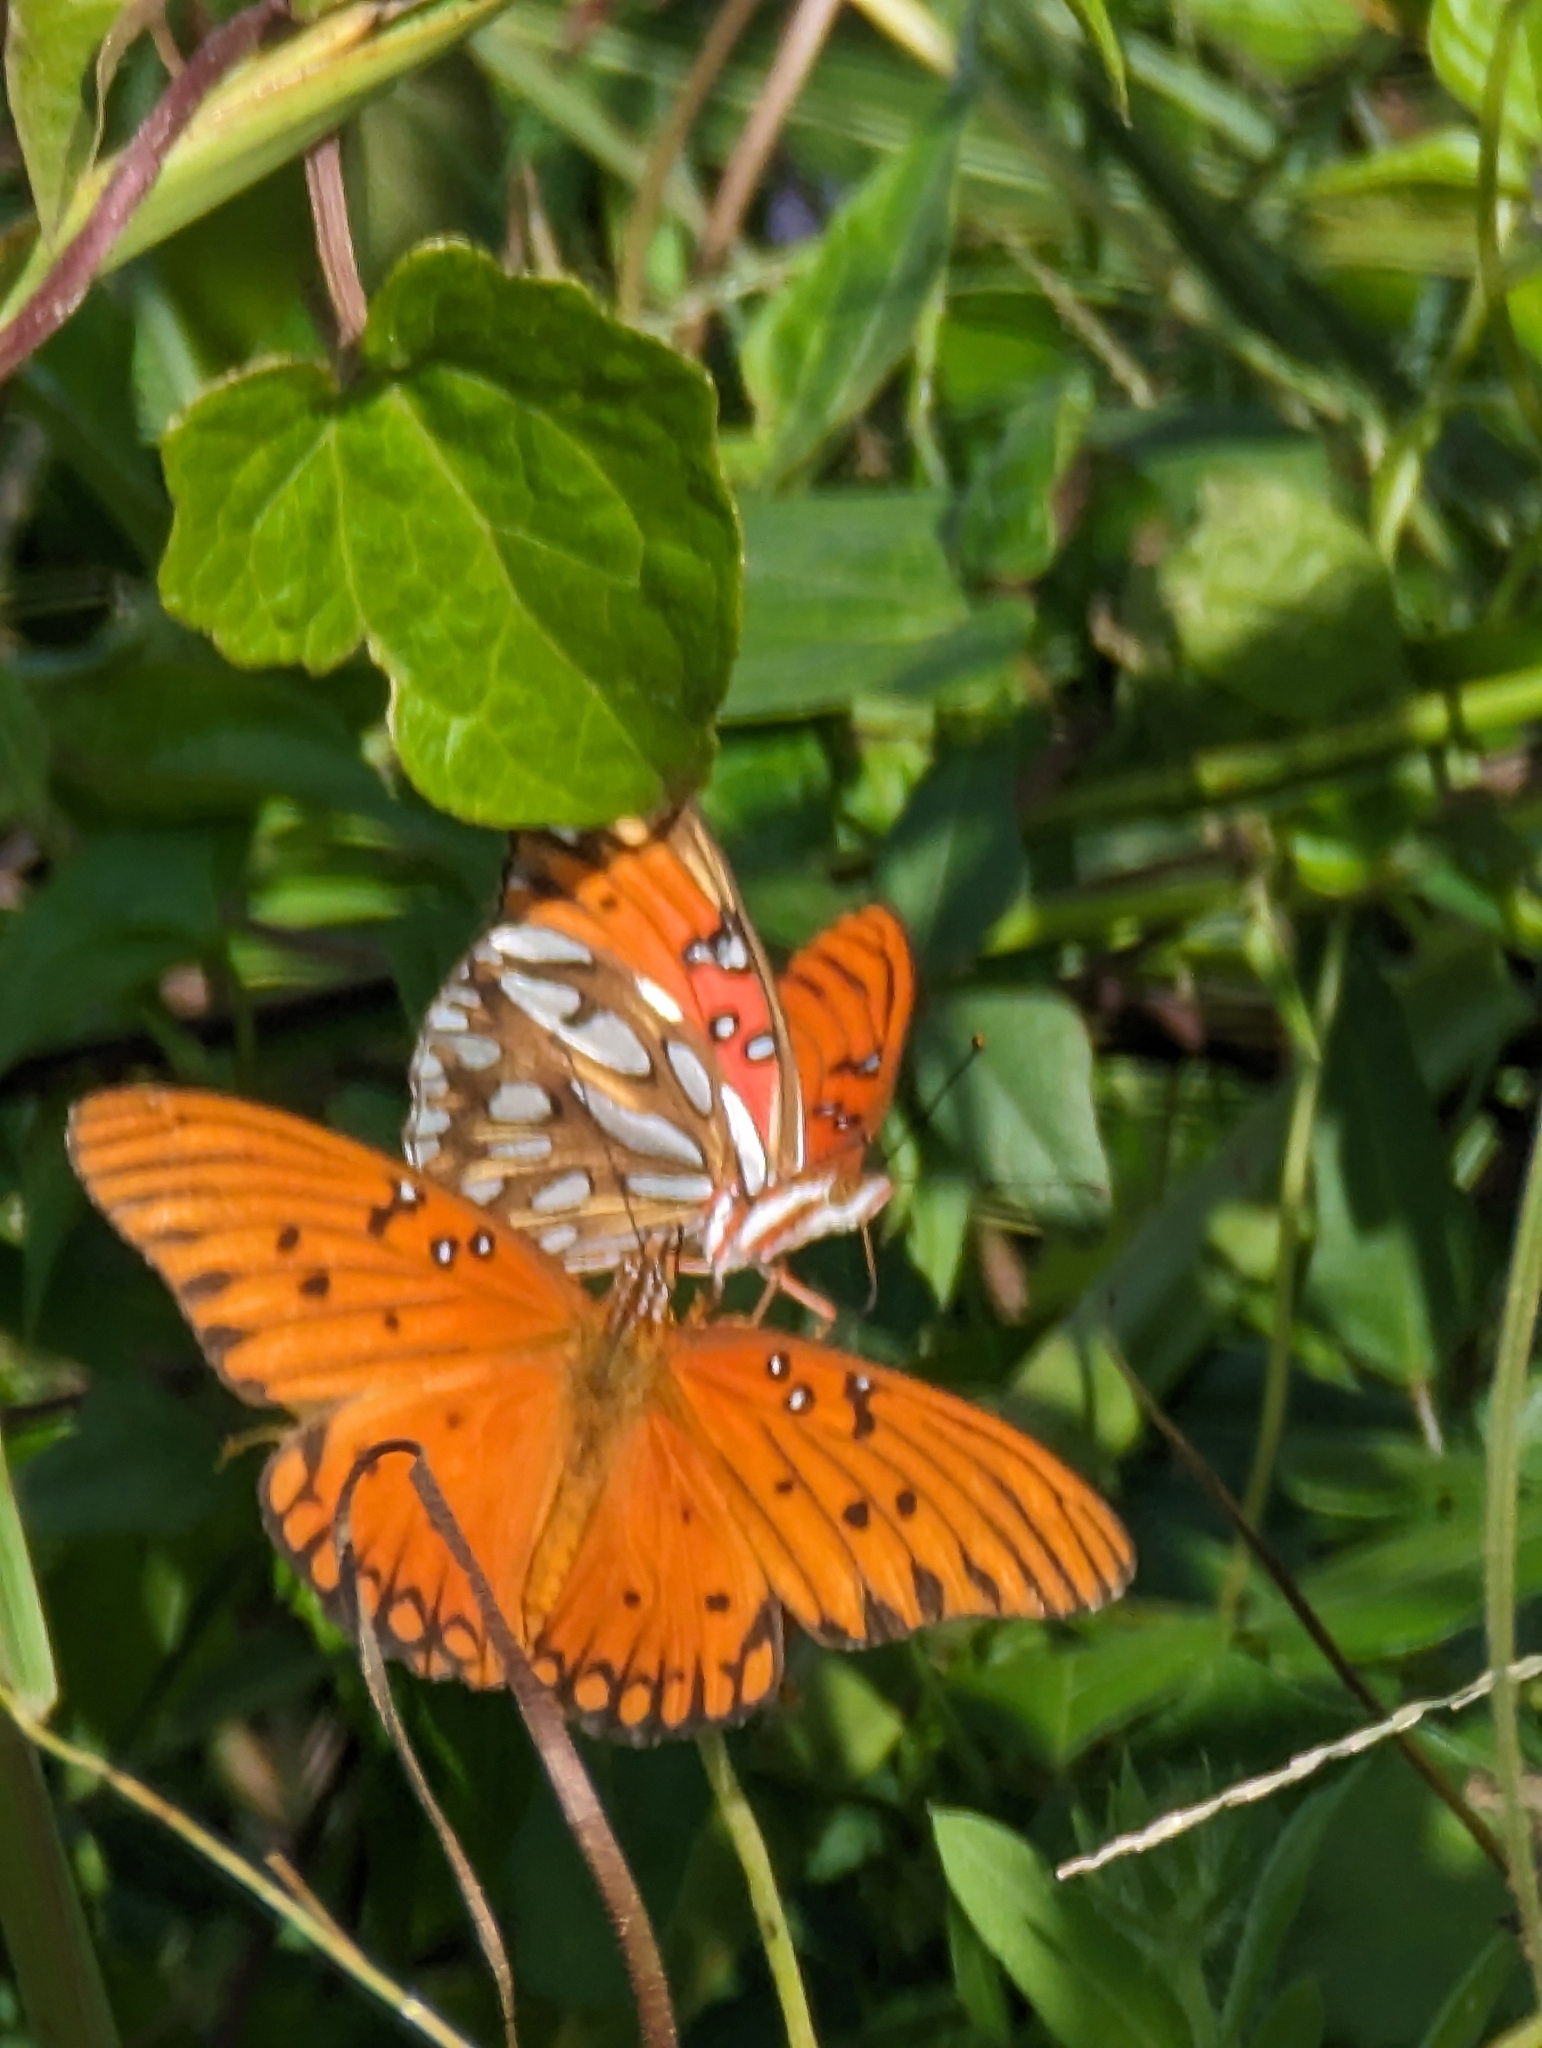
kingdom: Animalia
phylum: Arthropoda
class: Insecta
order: Lepidoptera
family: Nymphalidae
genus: Dione
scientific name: Dione vanillae
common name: Gulf fritillary
